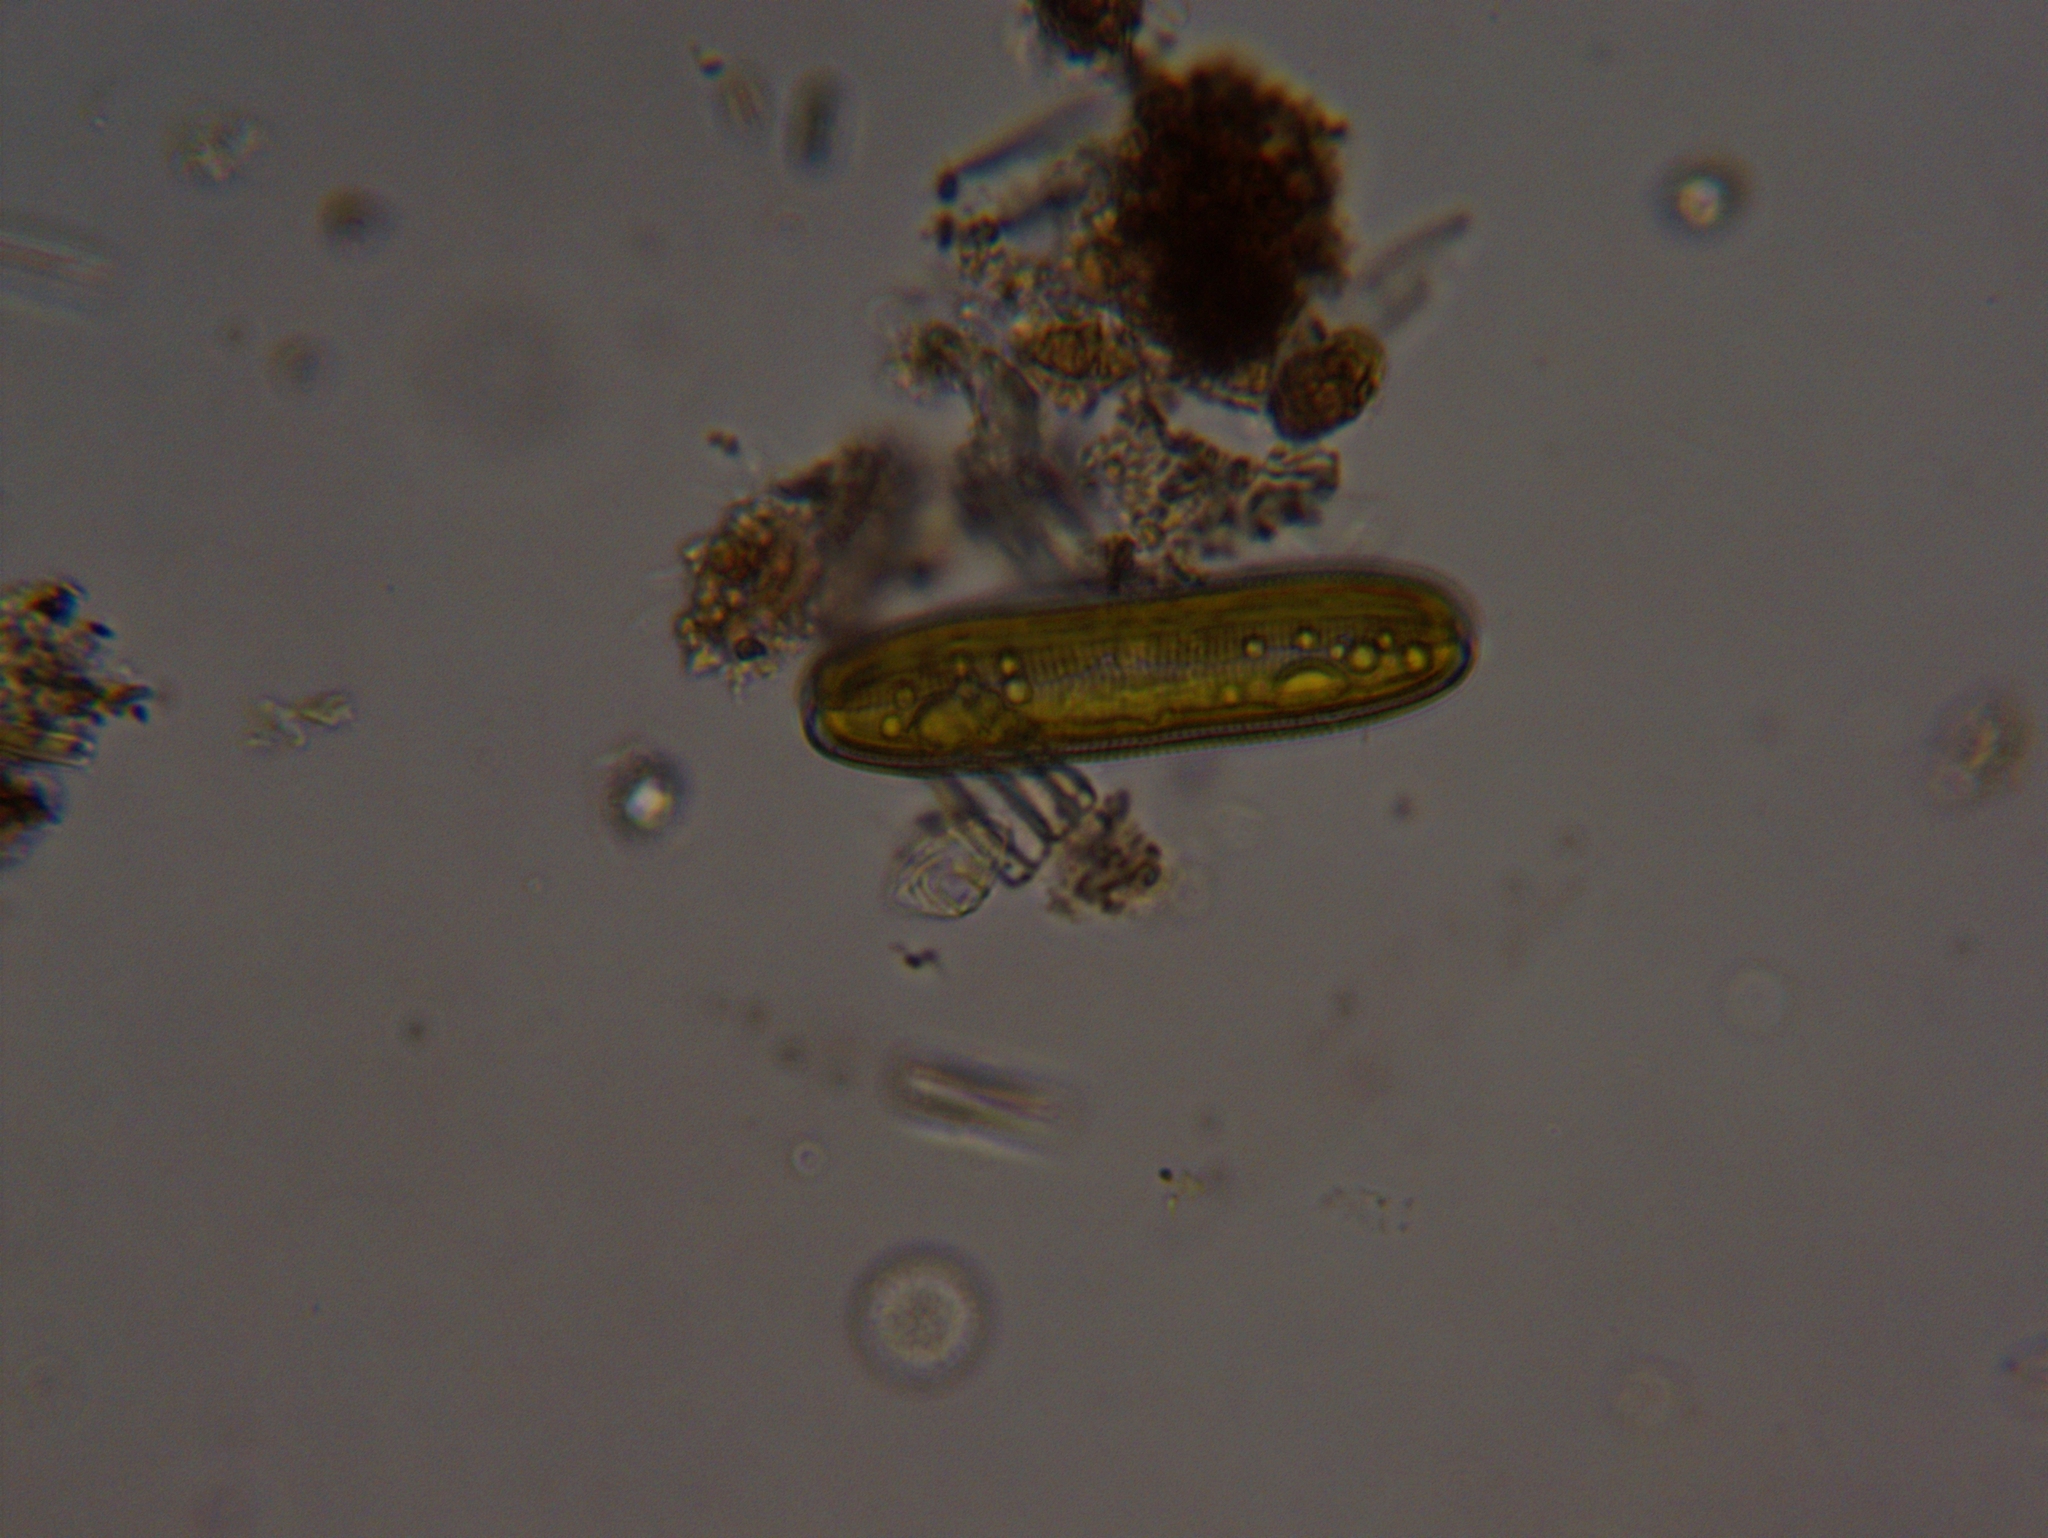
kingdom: Chromista
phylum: Ochrophyta
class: Bacillariophyceae
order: Naviculales
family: Pinnulariaceae
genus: Pinnularia
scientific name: Pinnularia
